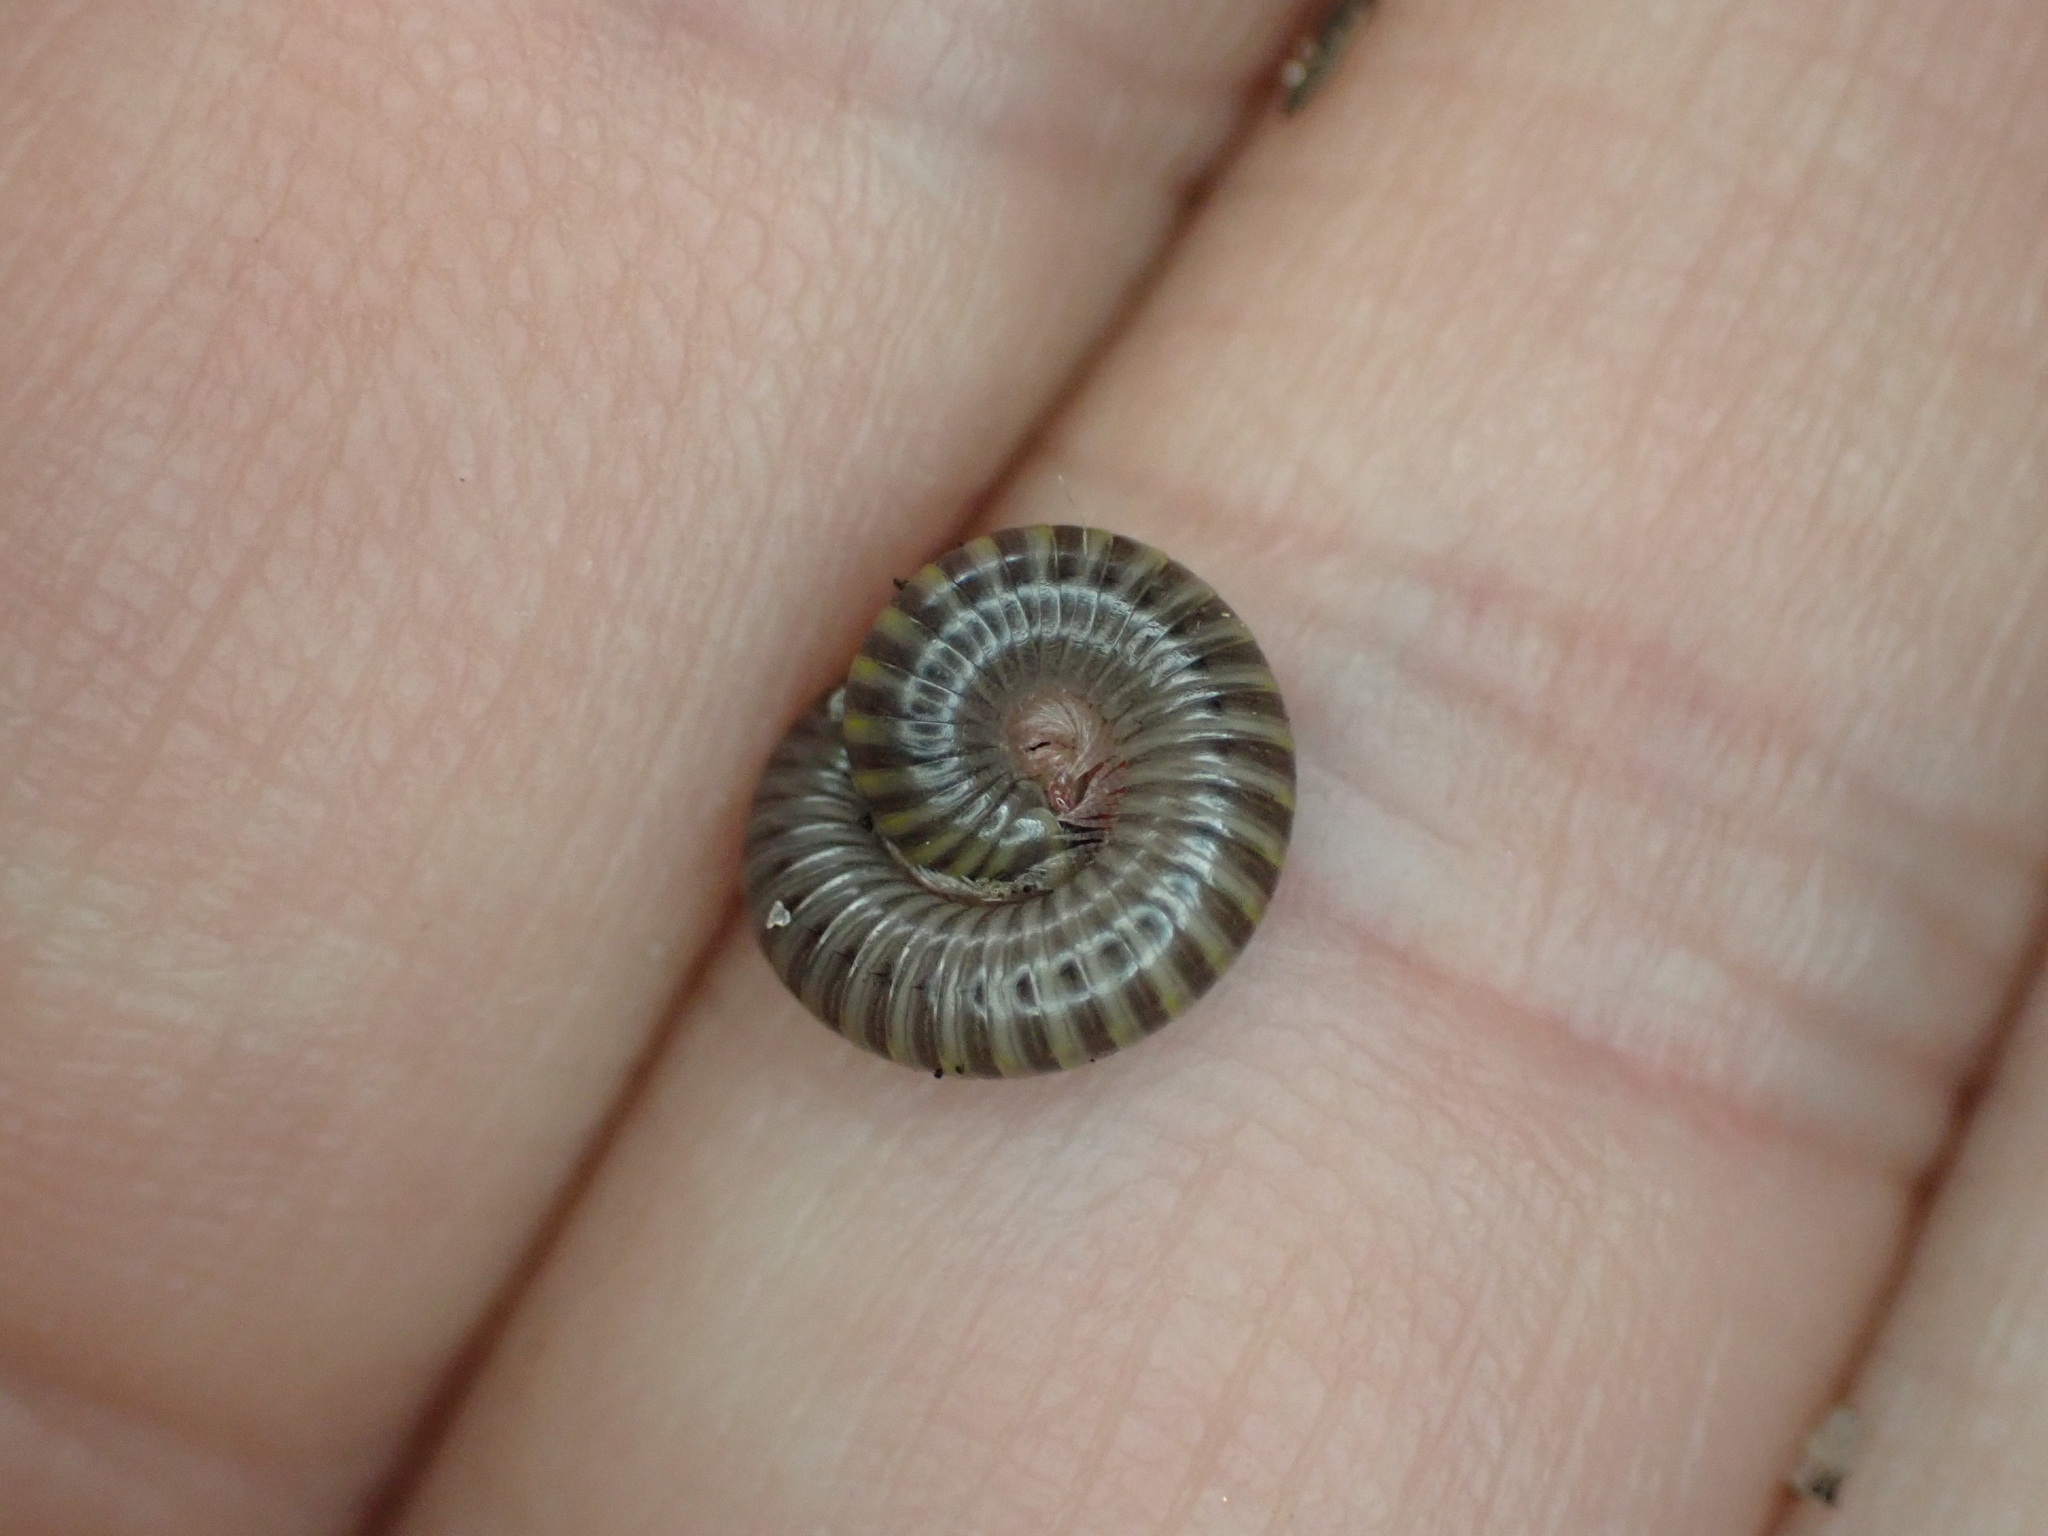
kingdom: Animalia
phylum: Arthropoda
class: Diplopoda
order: Spirobolida
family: Rhinocricidae
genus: Anadenobolus
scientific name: Anadenobolus monilicornis
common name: Caribbean millipede
